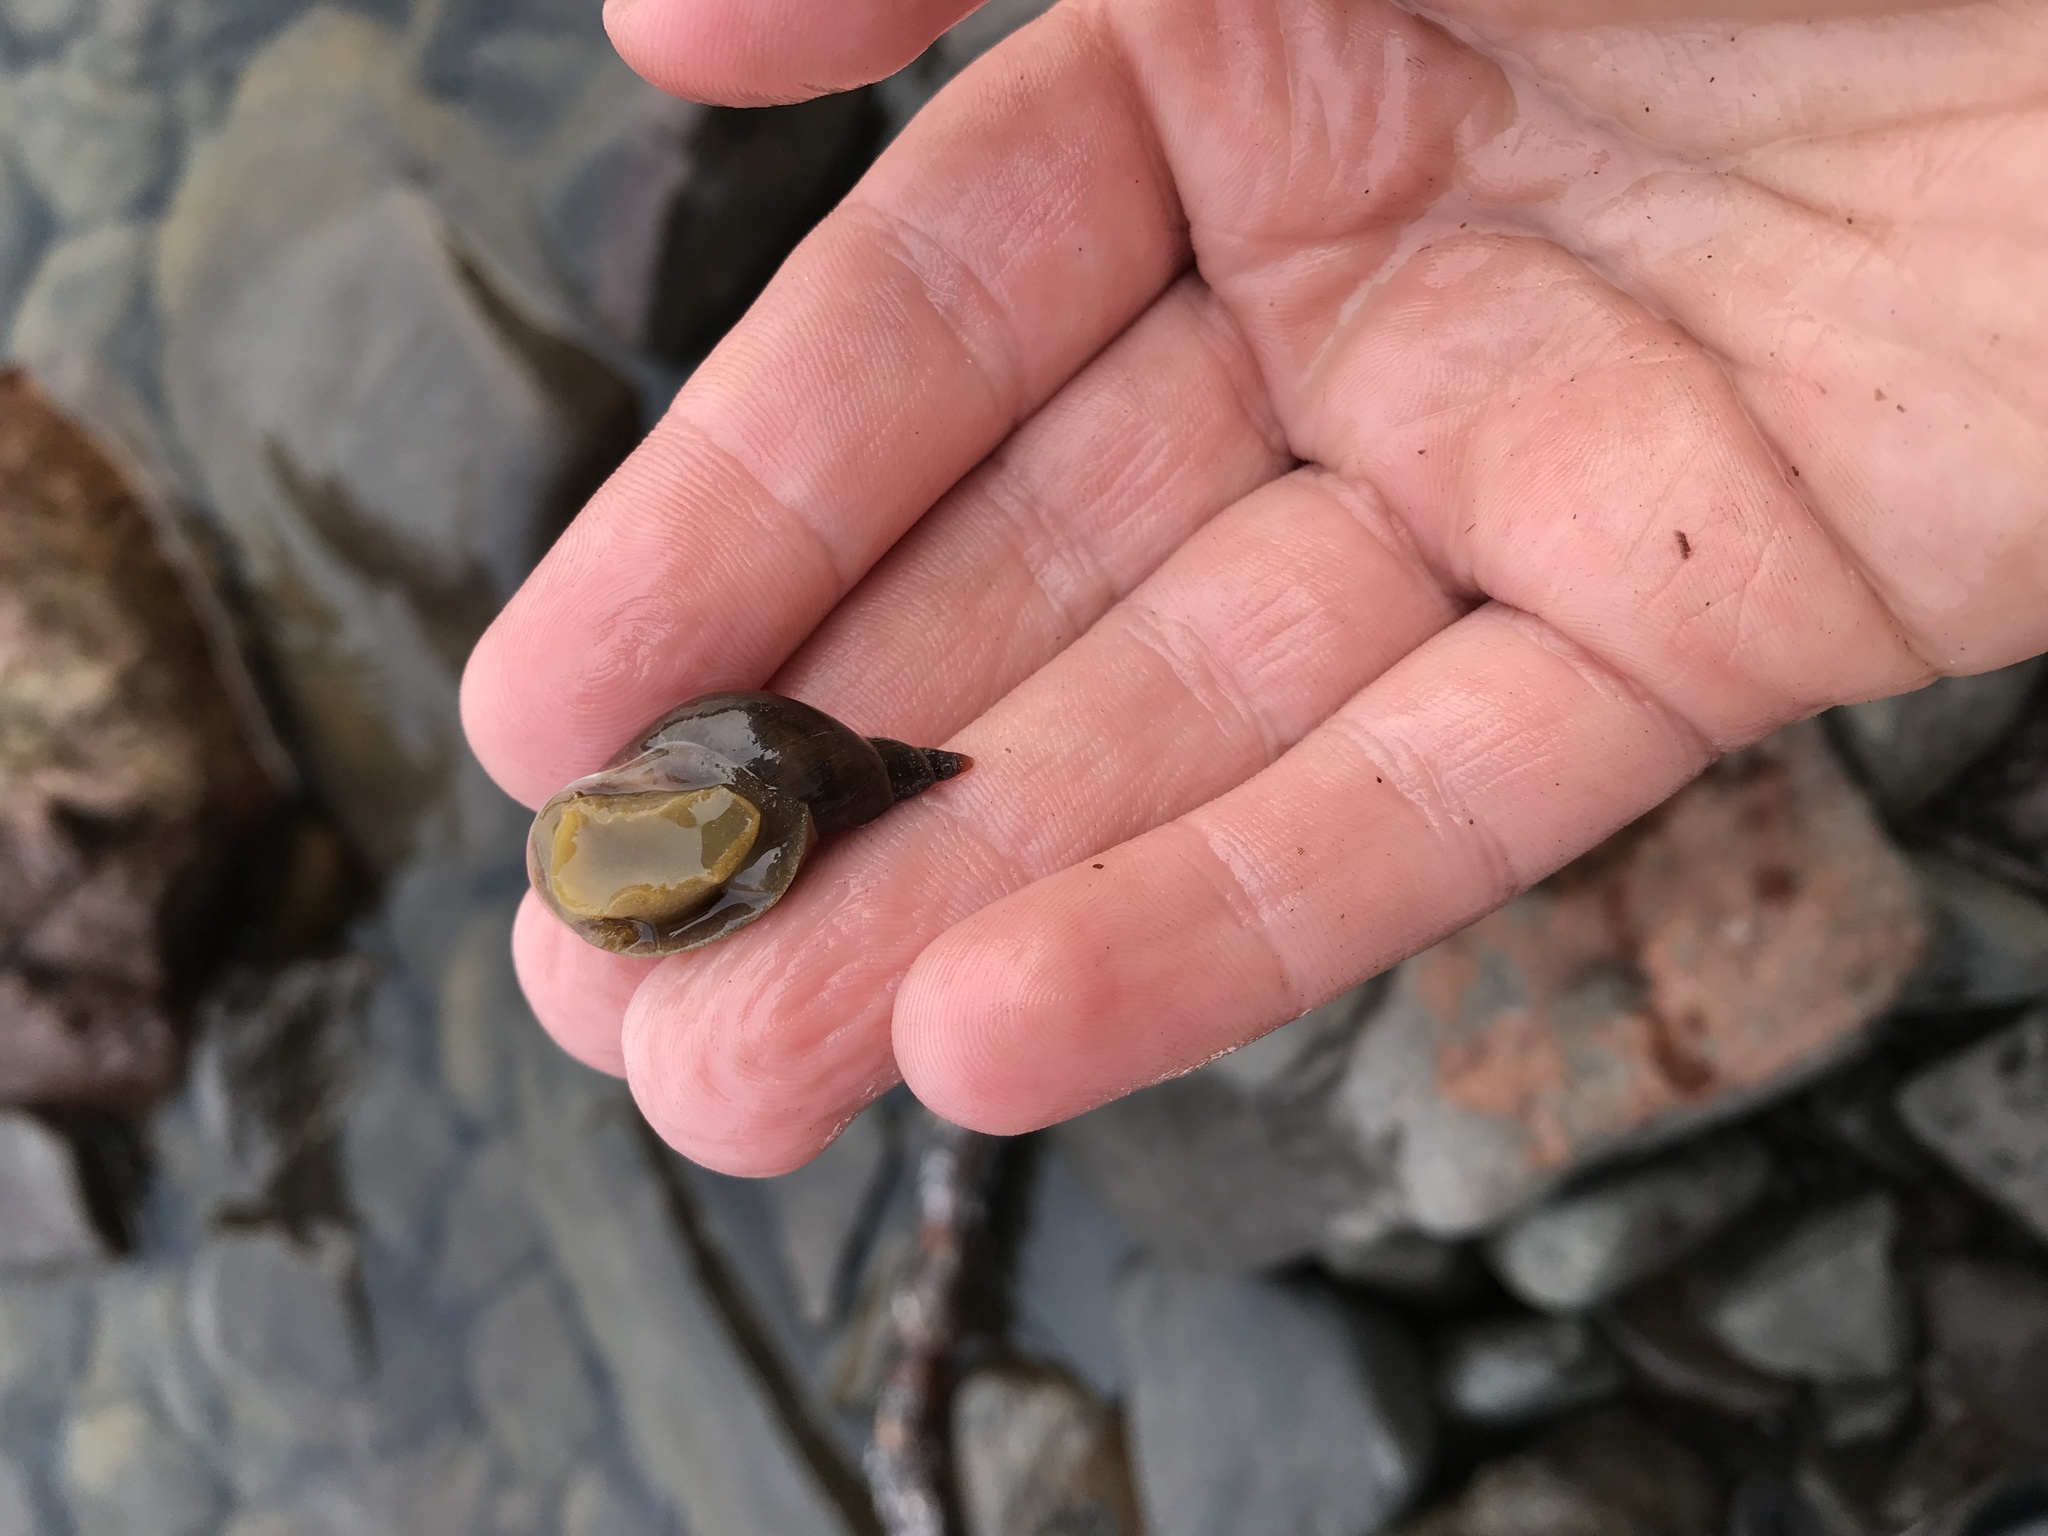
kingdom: Animalia
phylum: Mollusca
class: Gastropoda
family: Lymnaeidae
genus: Lymnaea
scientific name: Lymnaea stagnalis
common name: Great pond snail
